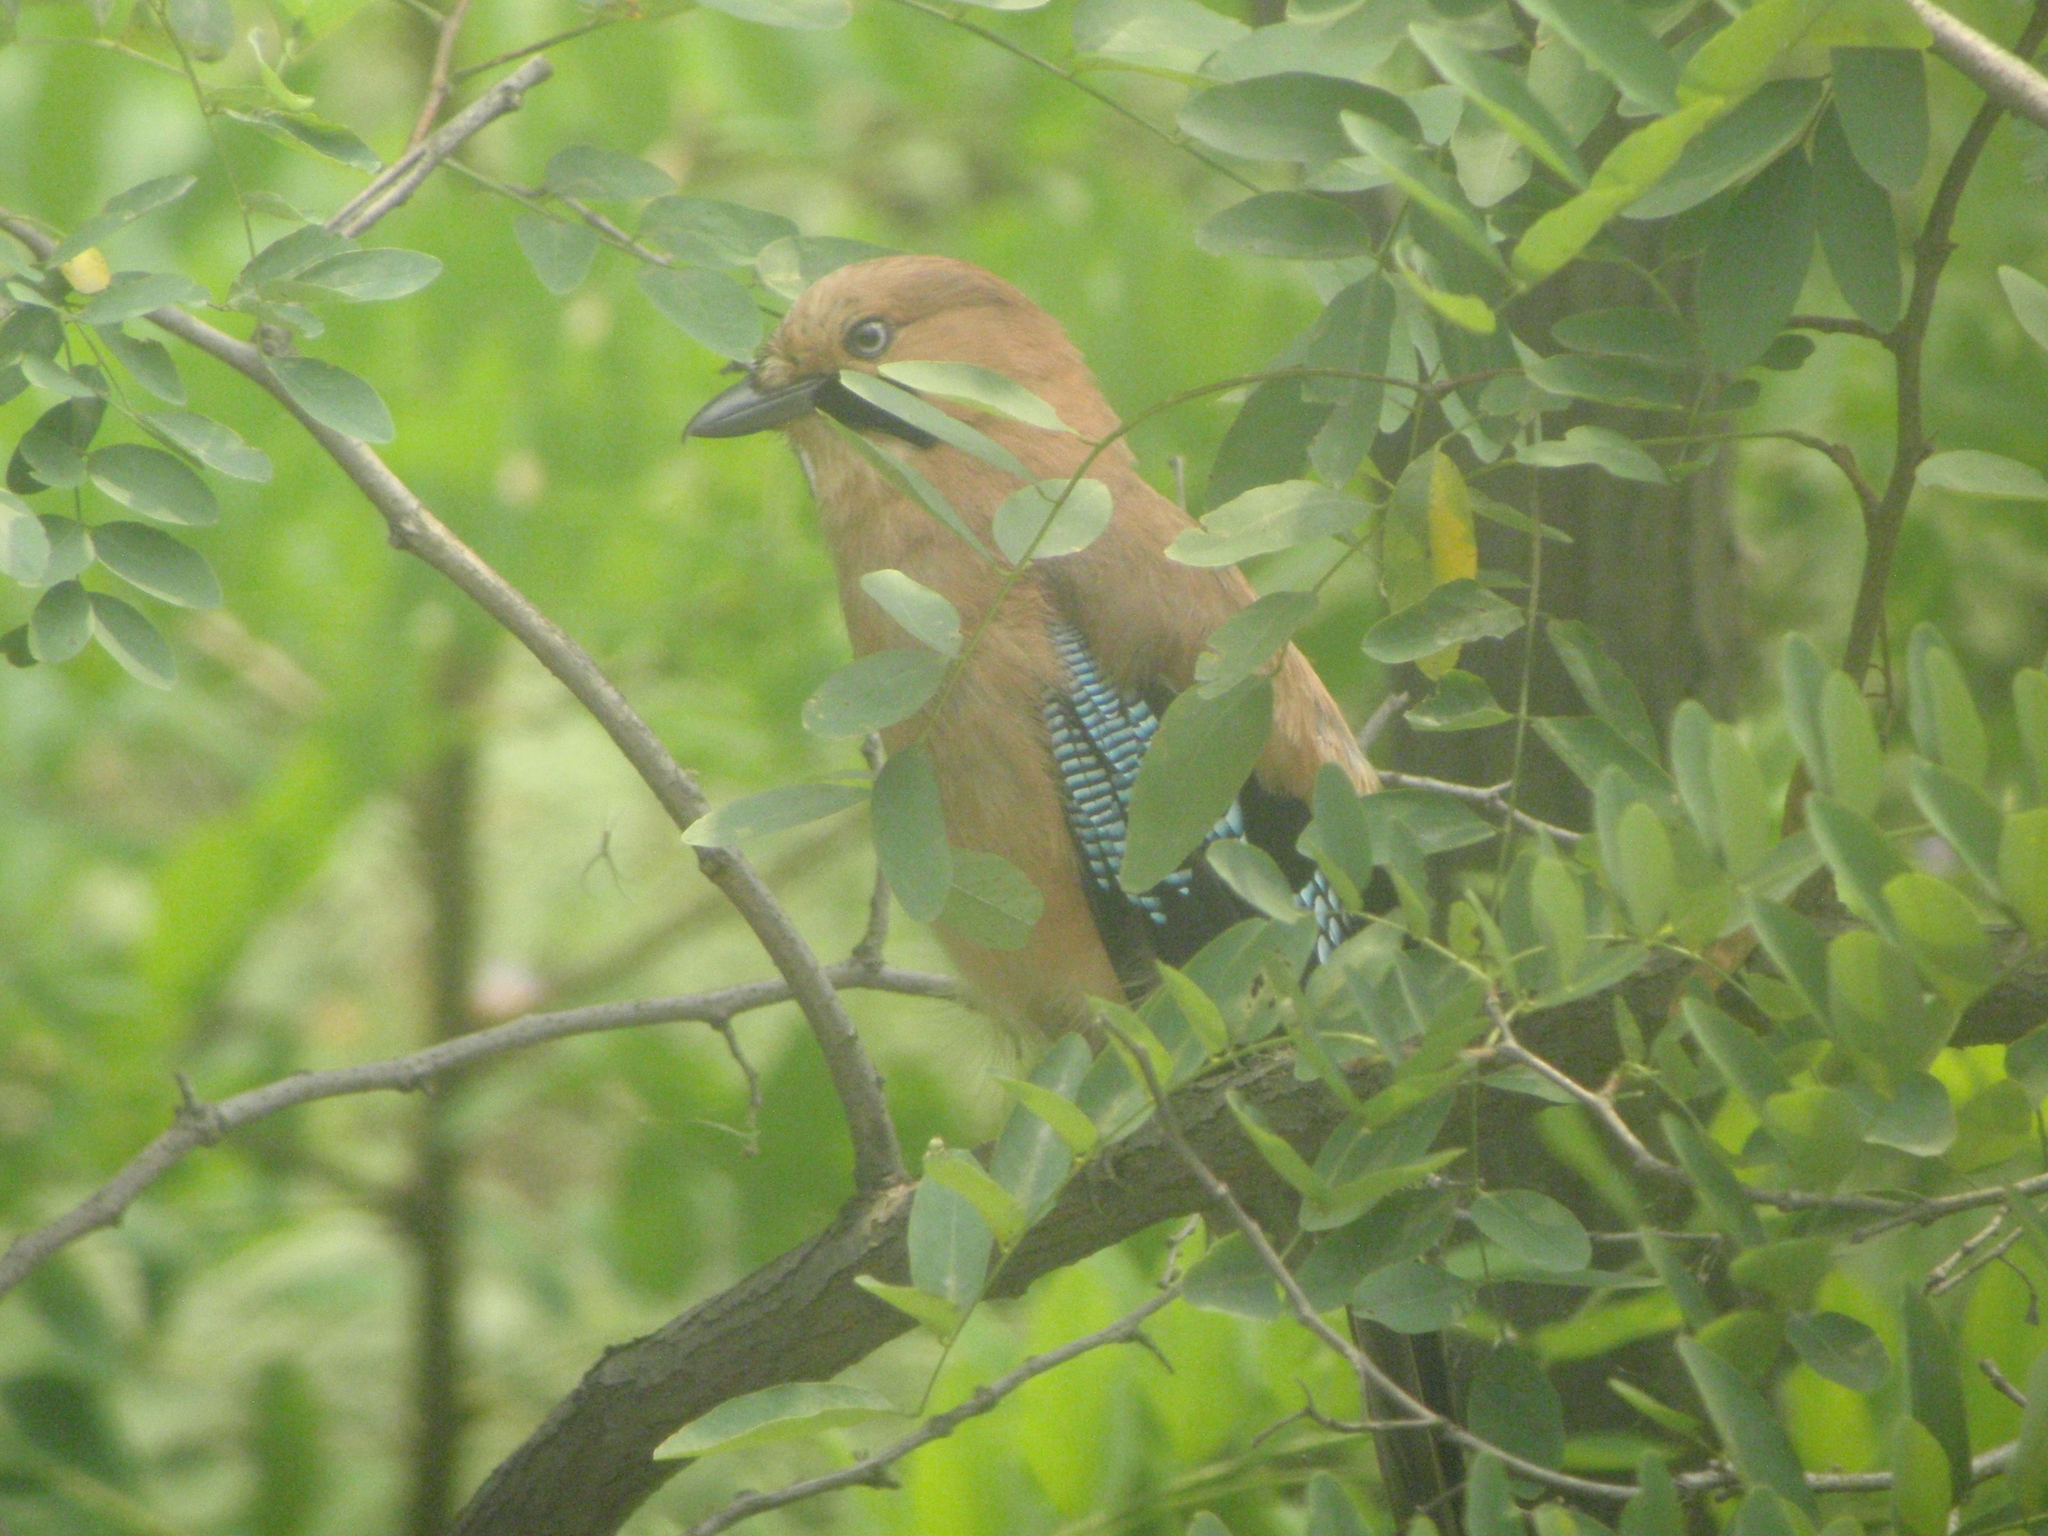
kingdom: Animalia
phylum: Chordata
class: Aves
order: Passeriformes
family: Corvidae
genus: Garrulus
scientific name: Garrulus glandarius
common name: Eurasian jay
